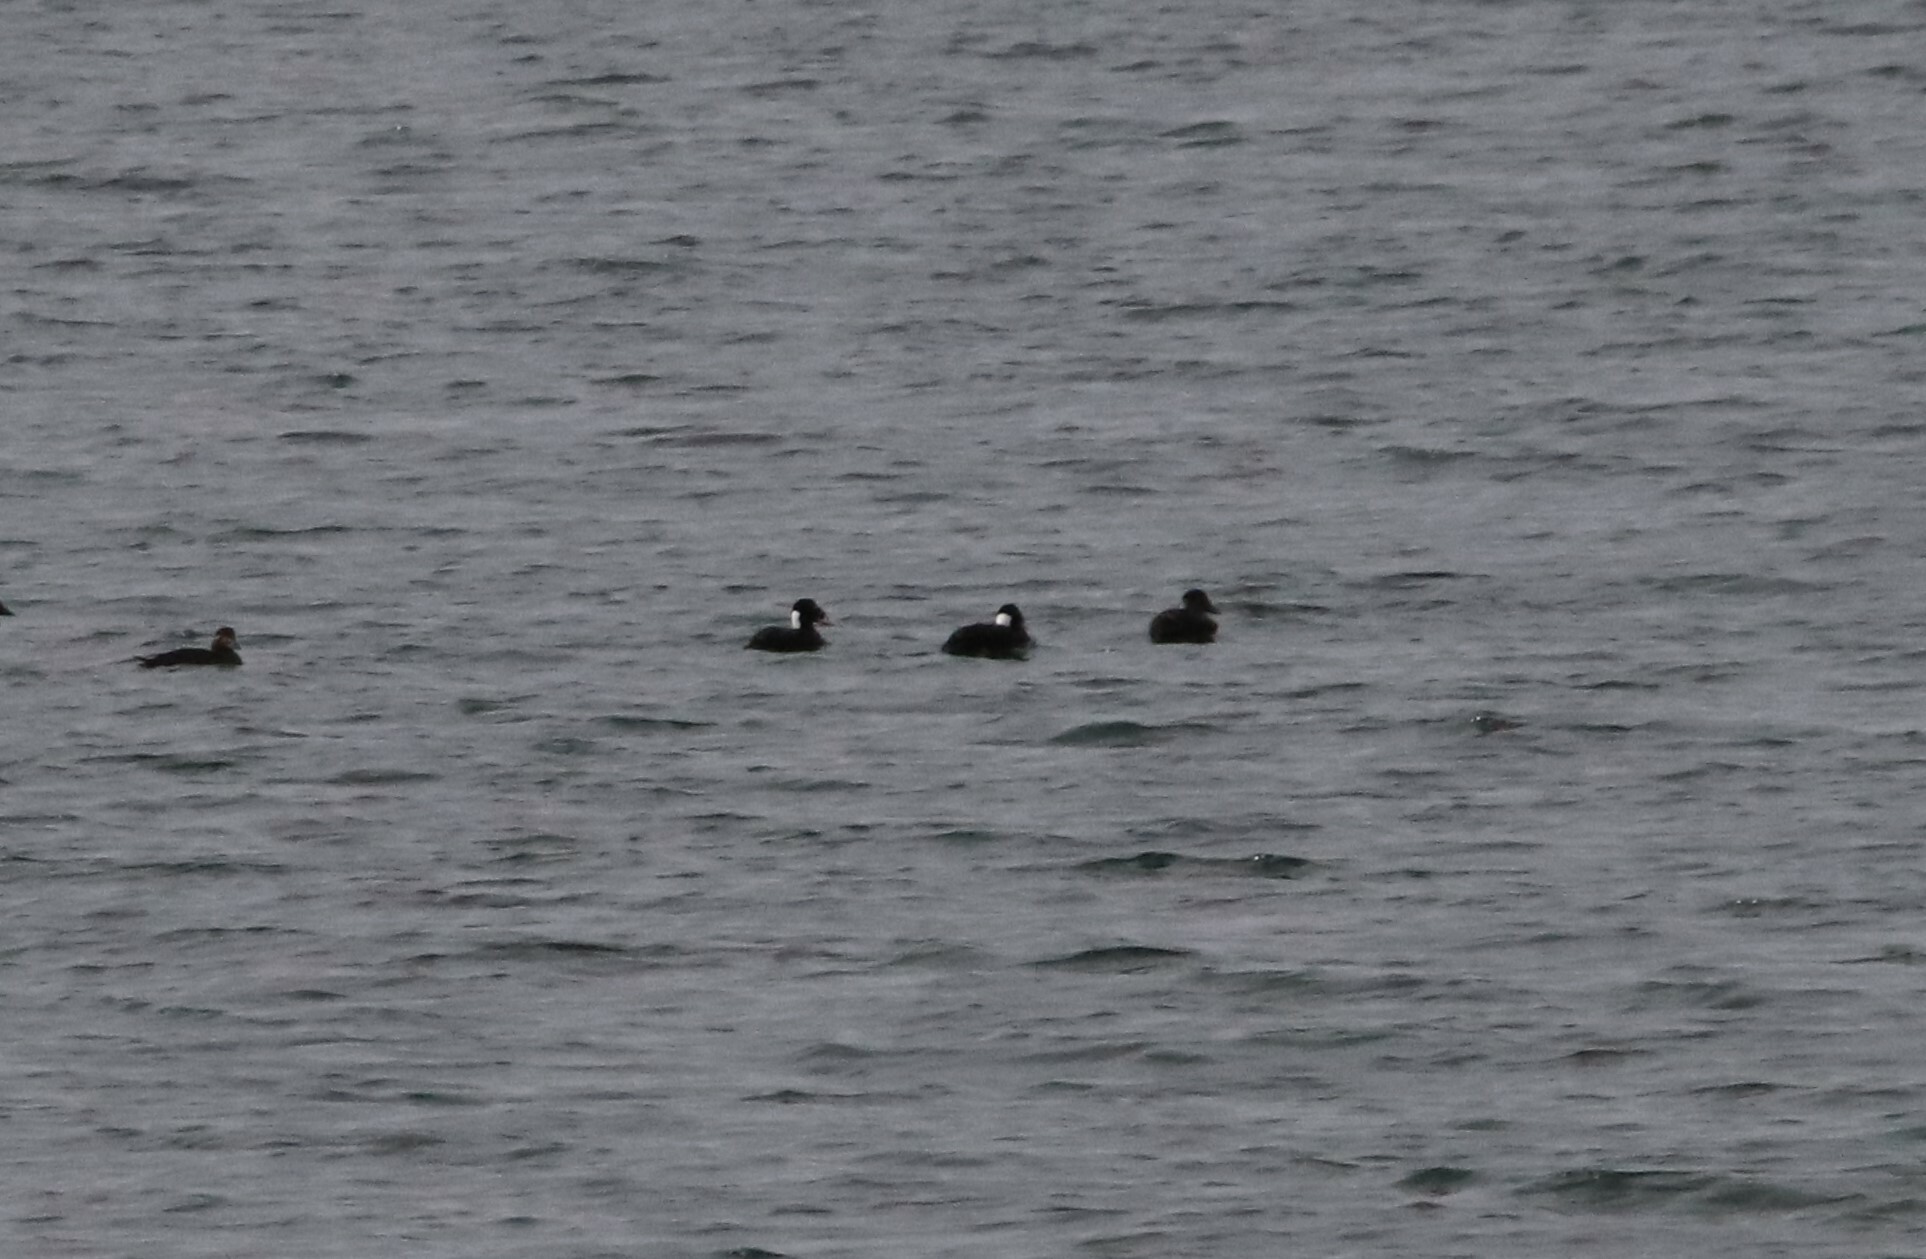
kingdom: Animalia
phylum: Chordata
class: Aves
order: Anseriformes
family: Anatidae
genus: Melanitta
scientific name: Melanitta perspicillata
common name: Surf scoter
